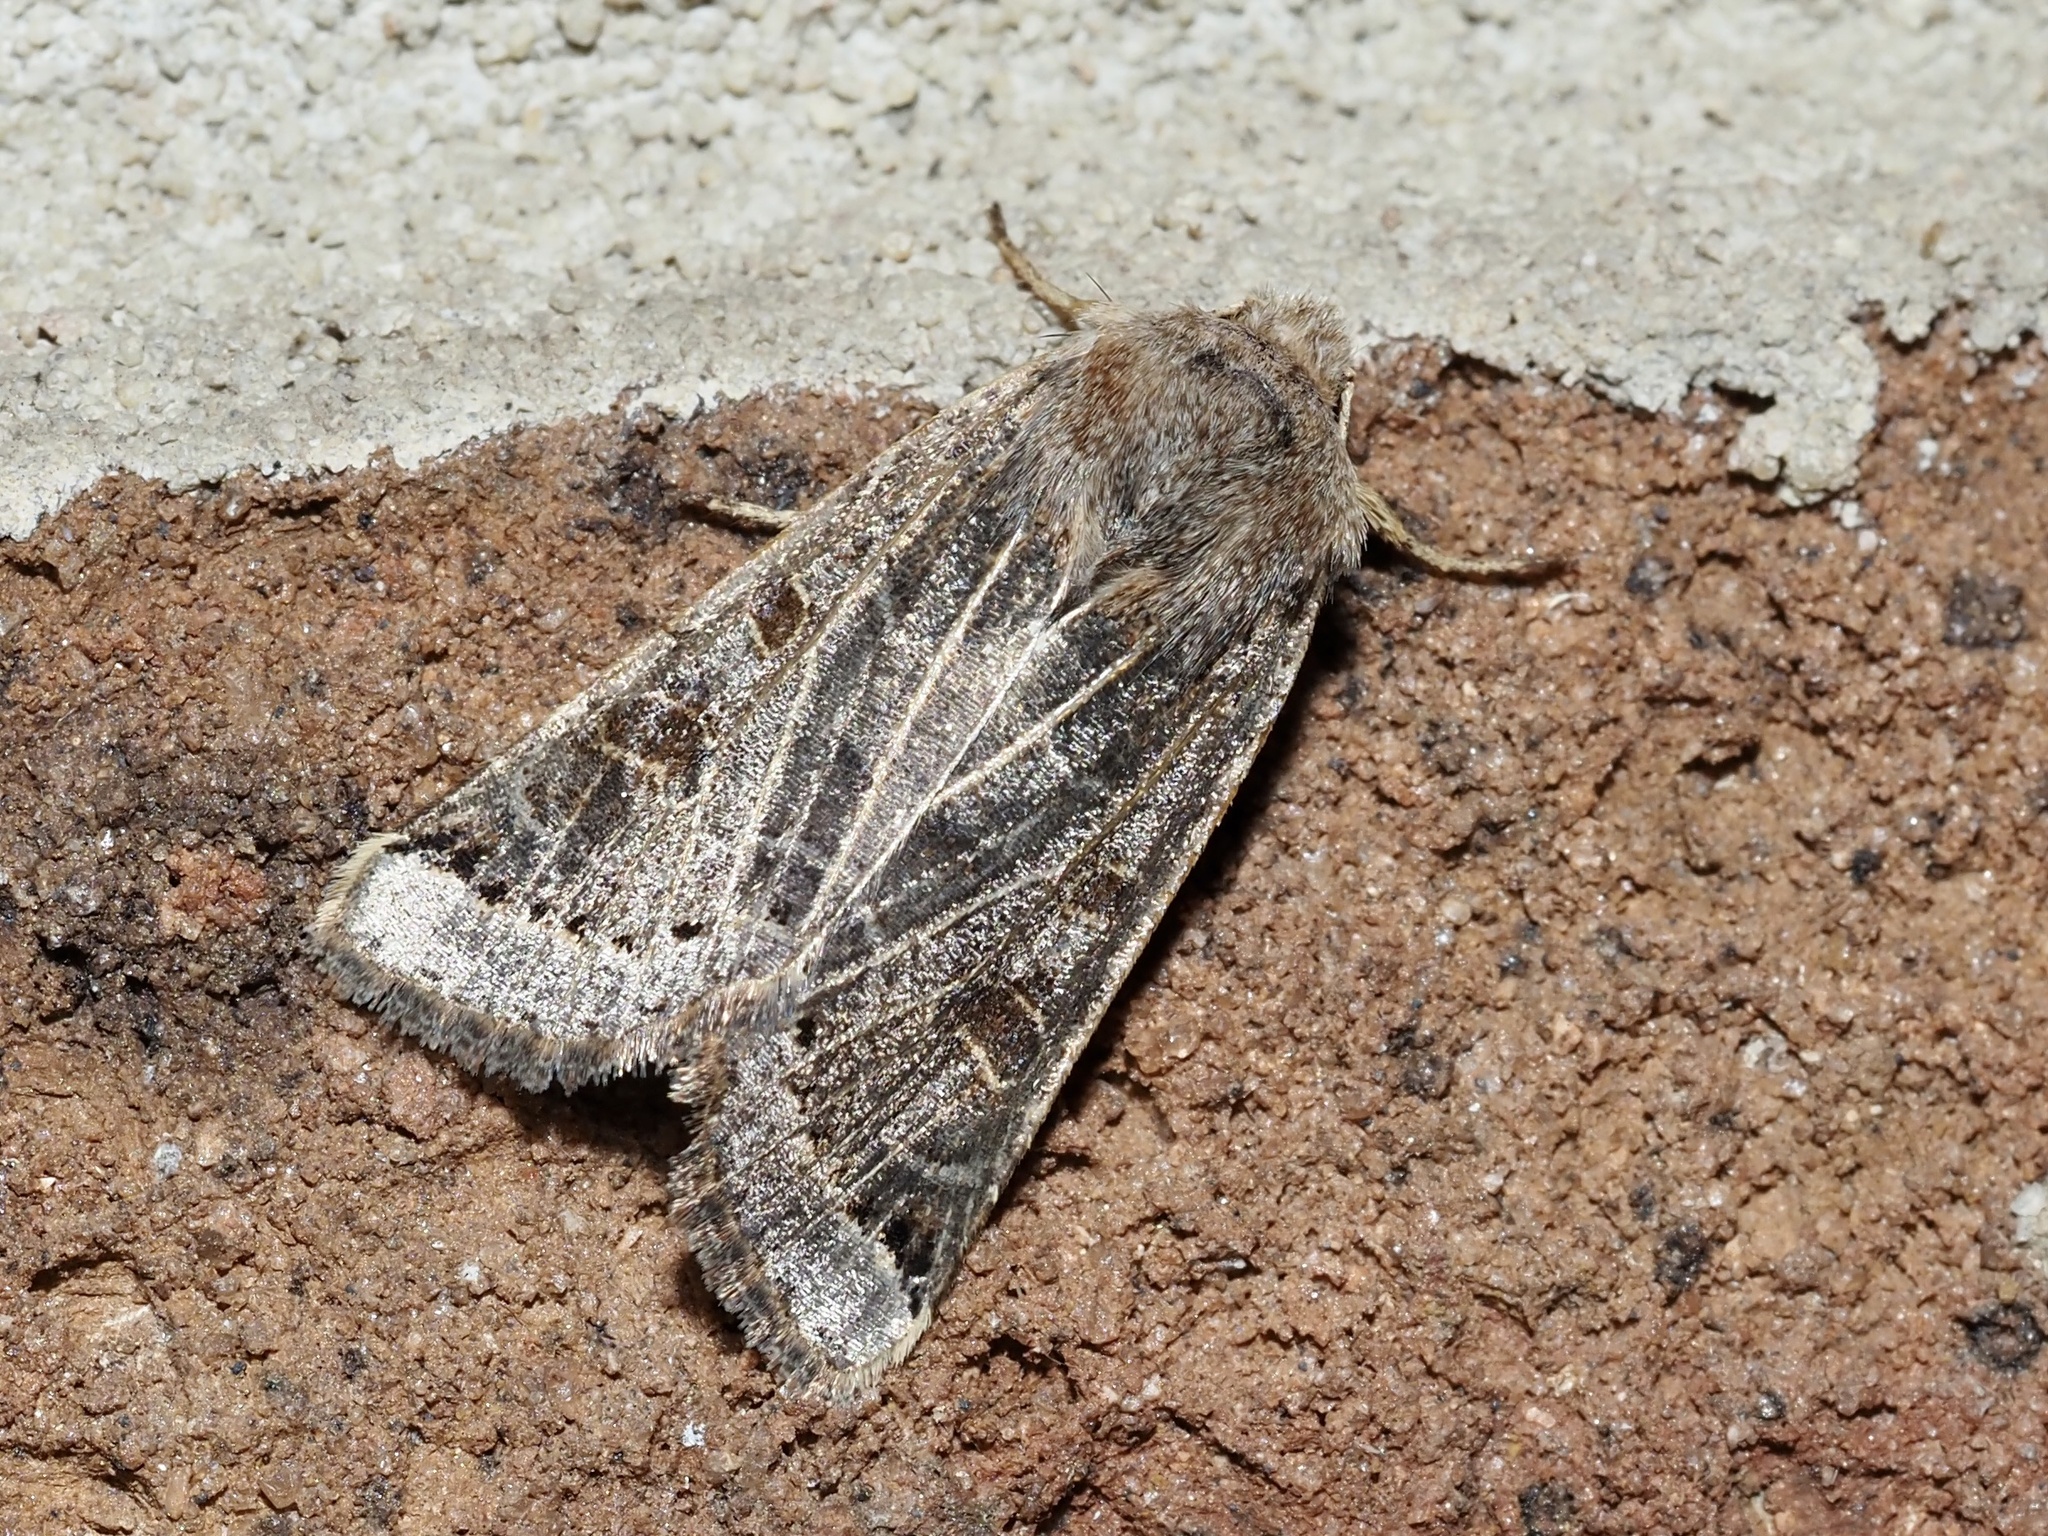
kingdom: Animalia
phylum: Arthropoda
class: Insecta
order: Lepidoptera
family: Noctuidae
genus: Agrochola
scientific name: Agrochola lunosa
